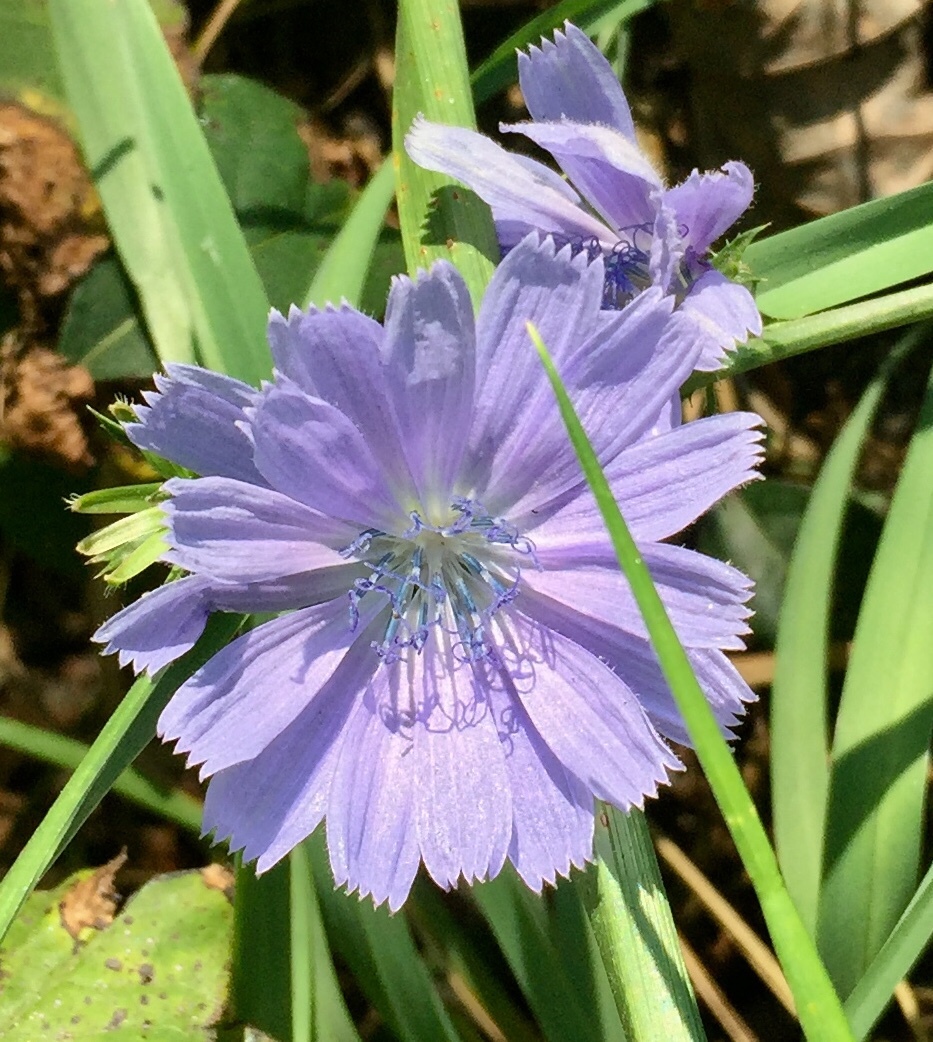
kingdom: Plantae
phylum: Tracheophyta
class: Magnoliopsida
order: Asterales
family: Asteraceae
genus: Cichorium
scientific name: Cichorium intybus
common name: Chicory
